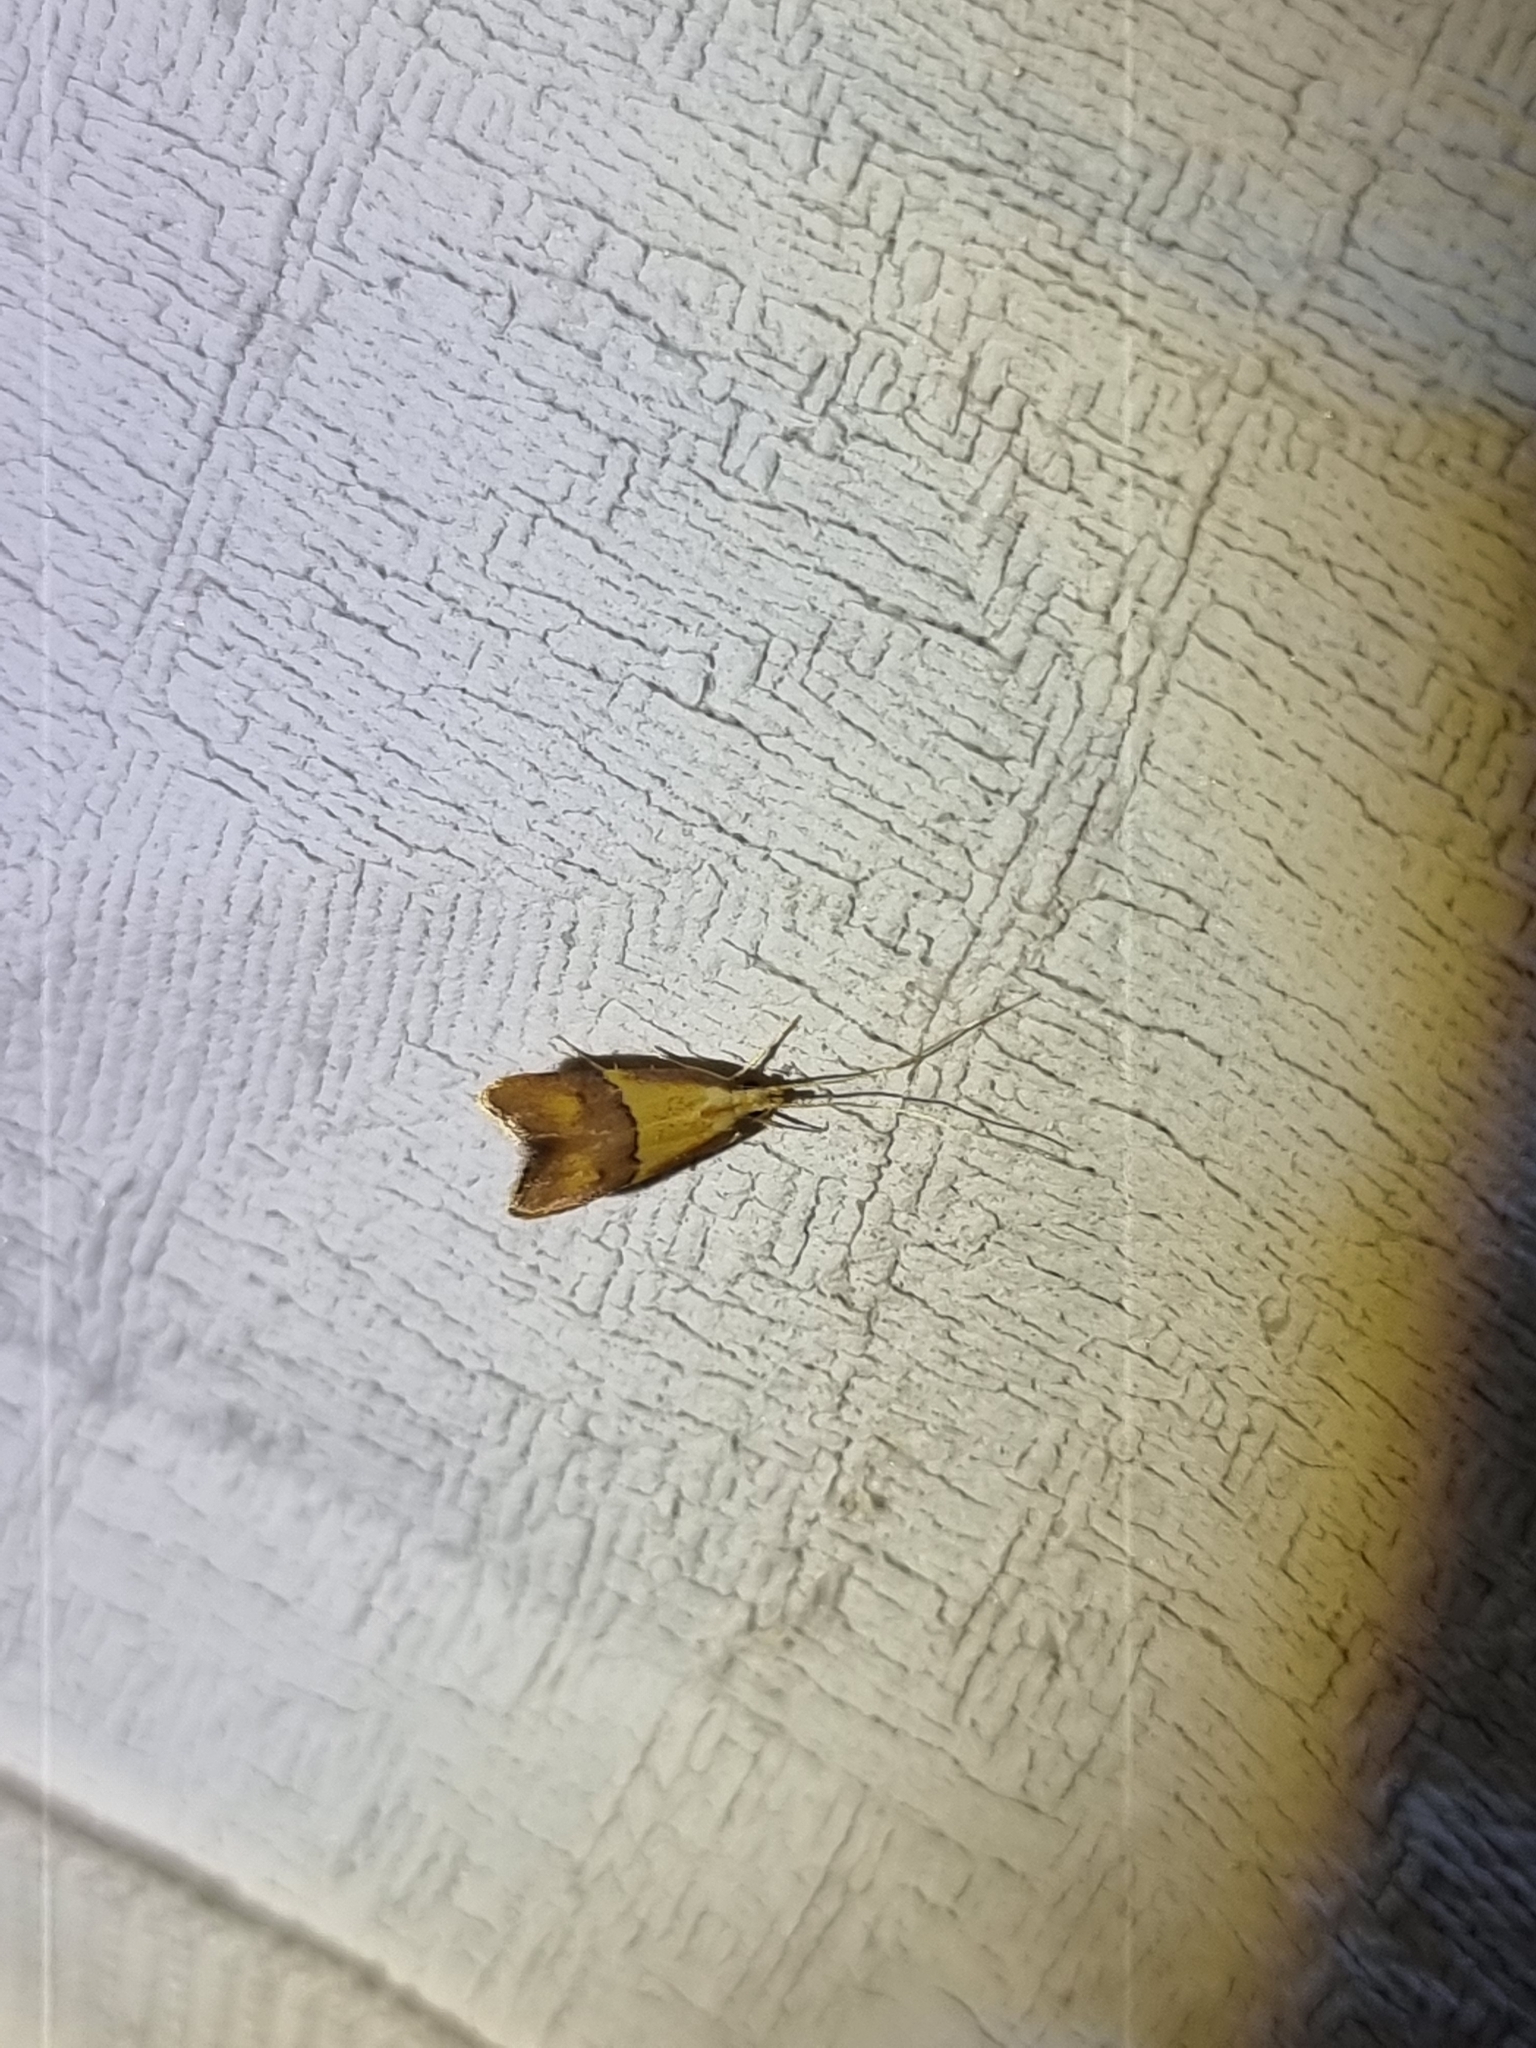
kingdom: Animalia
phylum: Arthropoda
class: Insecta
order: Lepidoptera
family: Lecithoceridae
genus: Crocanthes
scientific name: Crocanthes prasinopis
